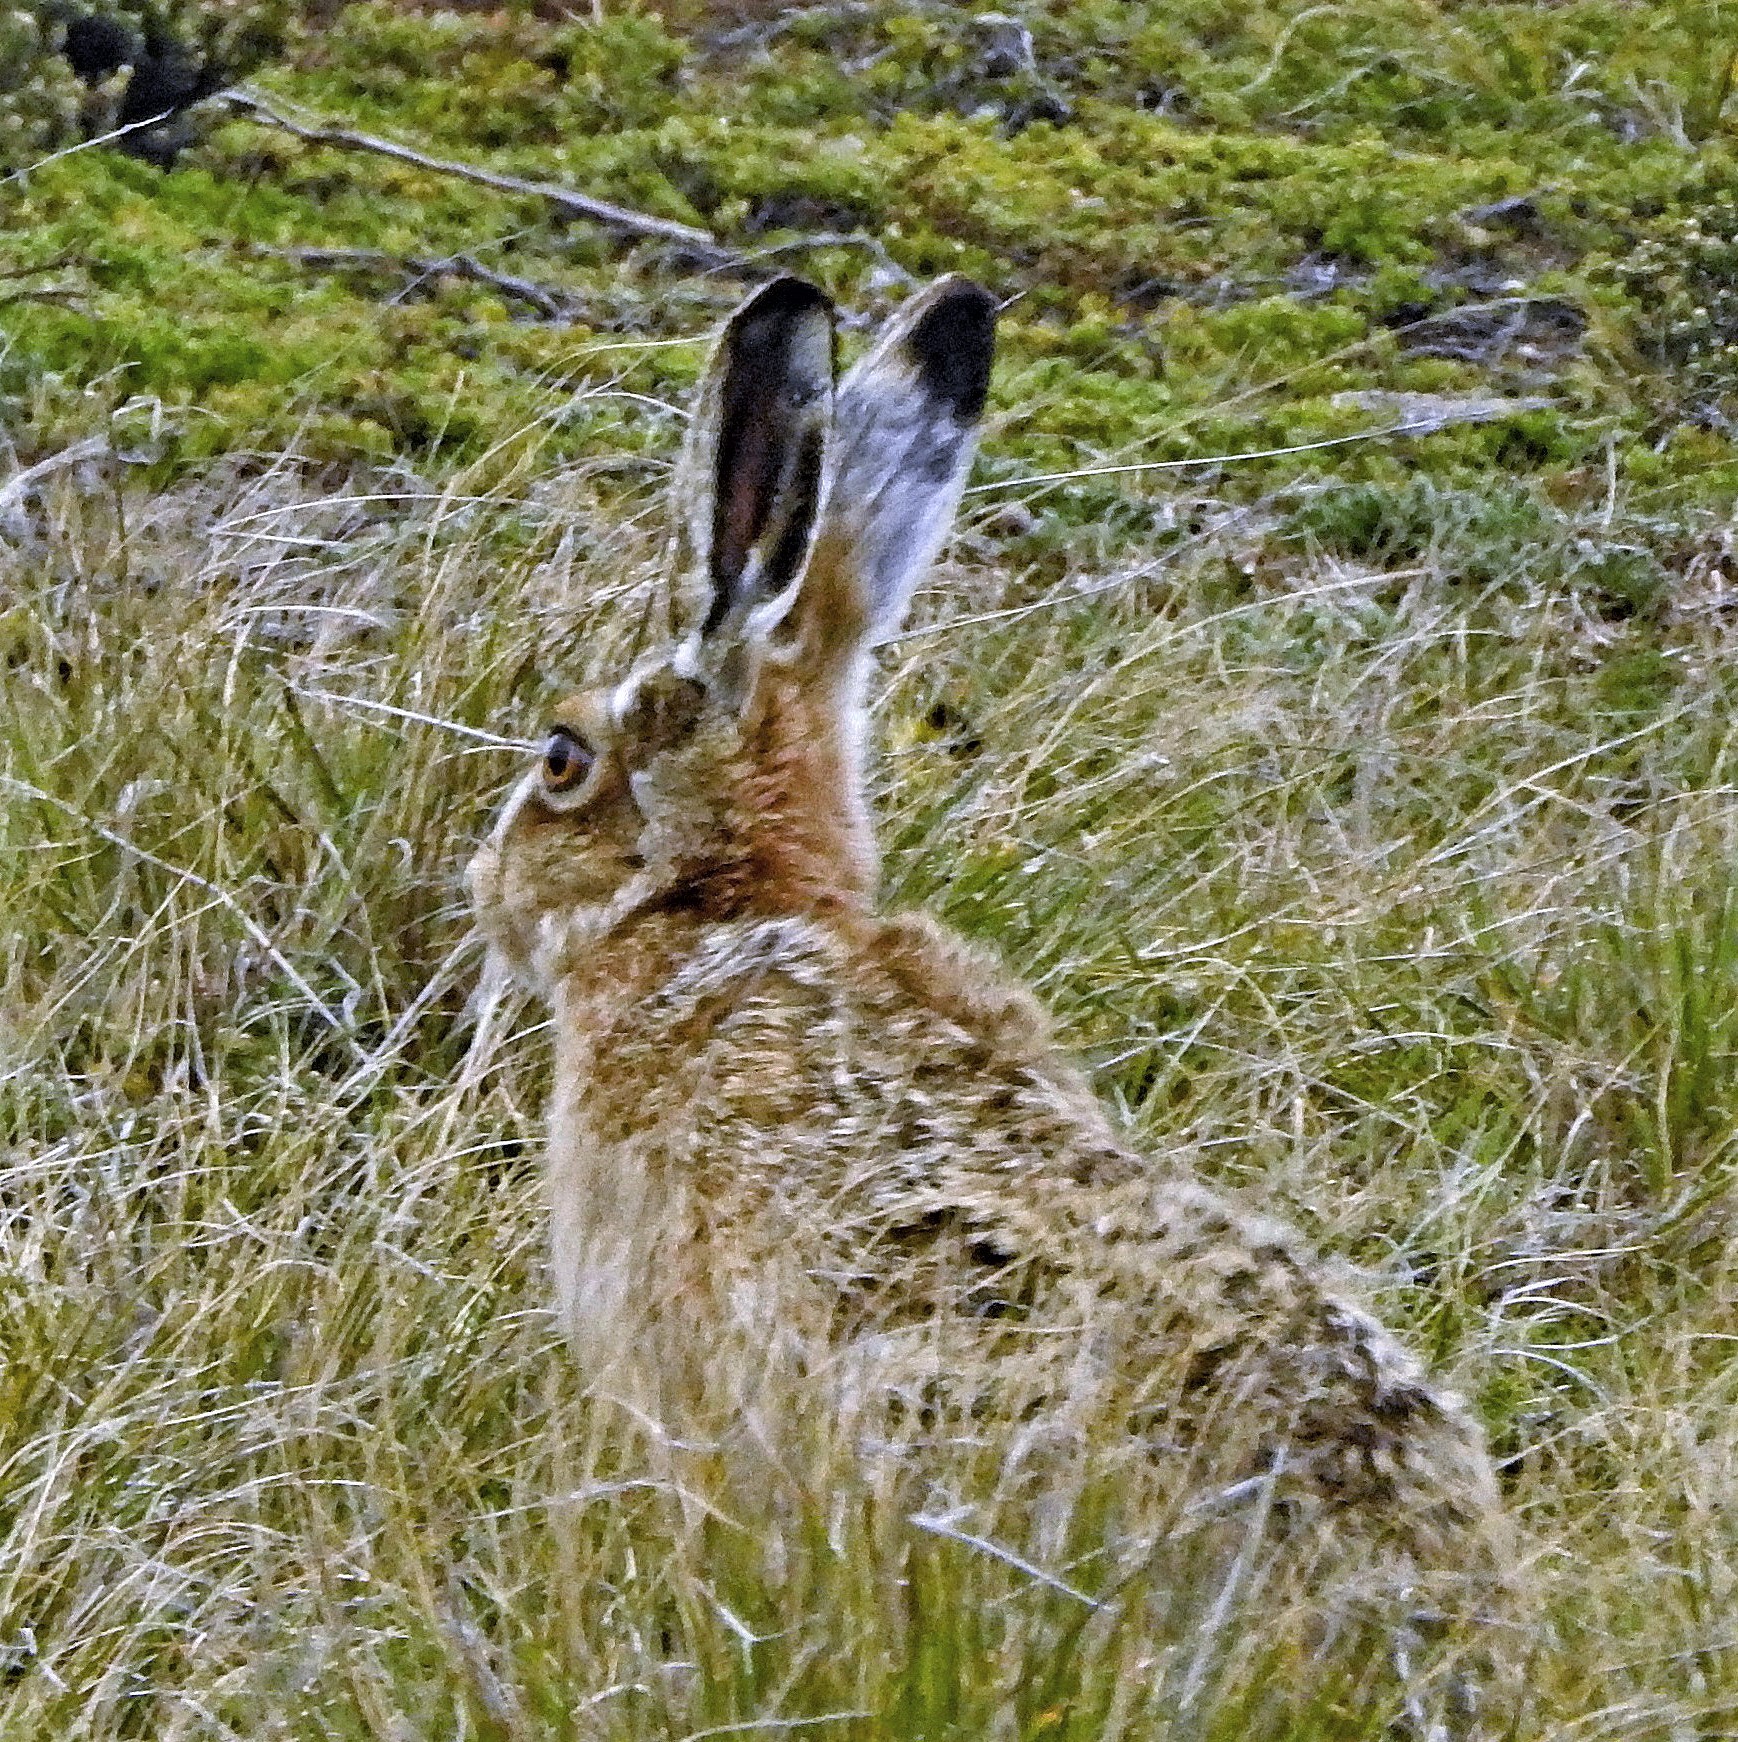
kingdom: Animalia
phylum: Chordata
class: Mammalia
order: Lagomorpha
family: Leporidae
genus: Lepus
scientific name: Lepus europaeus
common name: European hare
